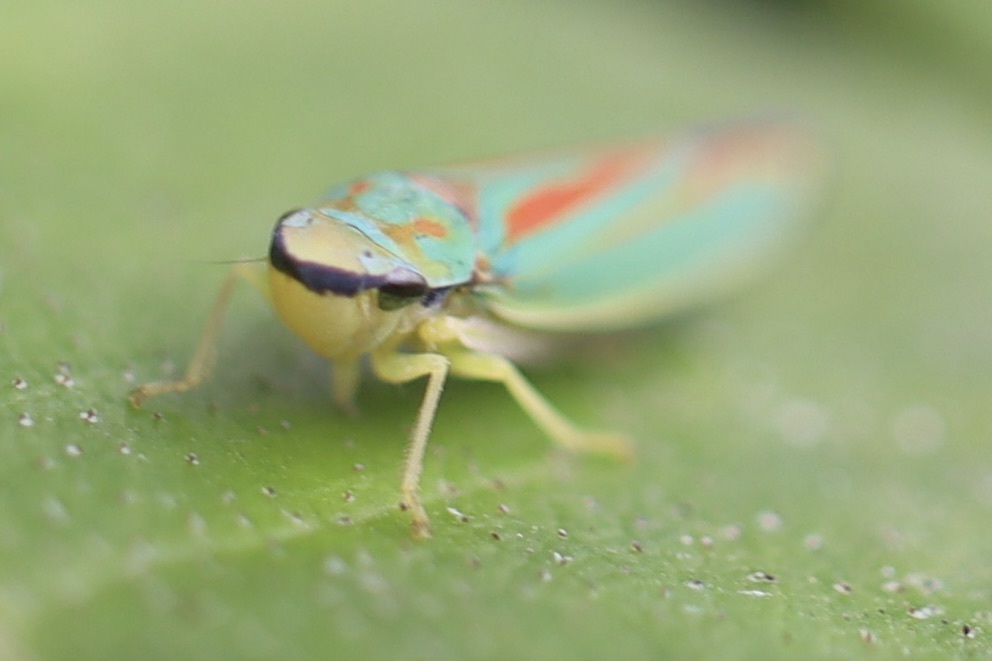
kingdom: Animalia
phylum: Arthropoda
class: Insecta
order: Hemiptera
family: Cicadellidae
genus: Graphocephala
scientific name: Graphocephala fennahi
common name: Rhododendron leafhopper
